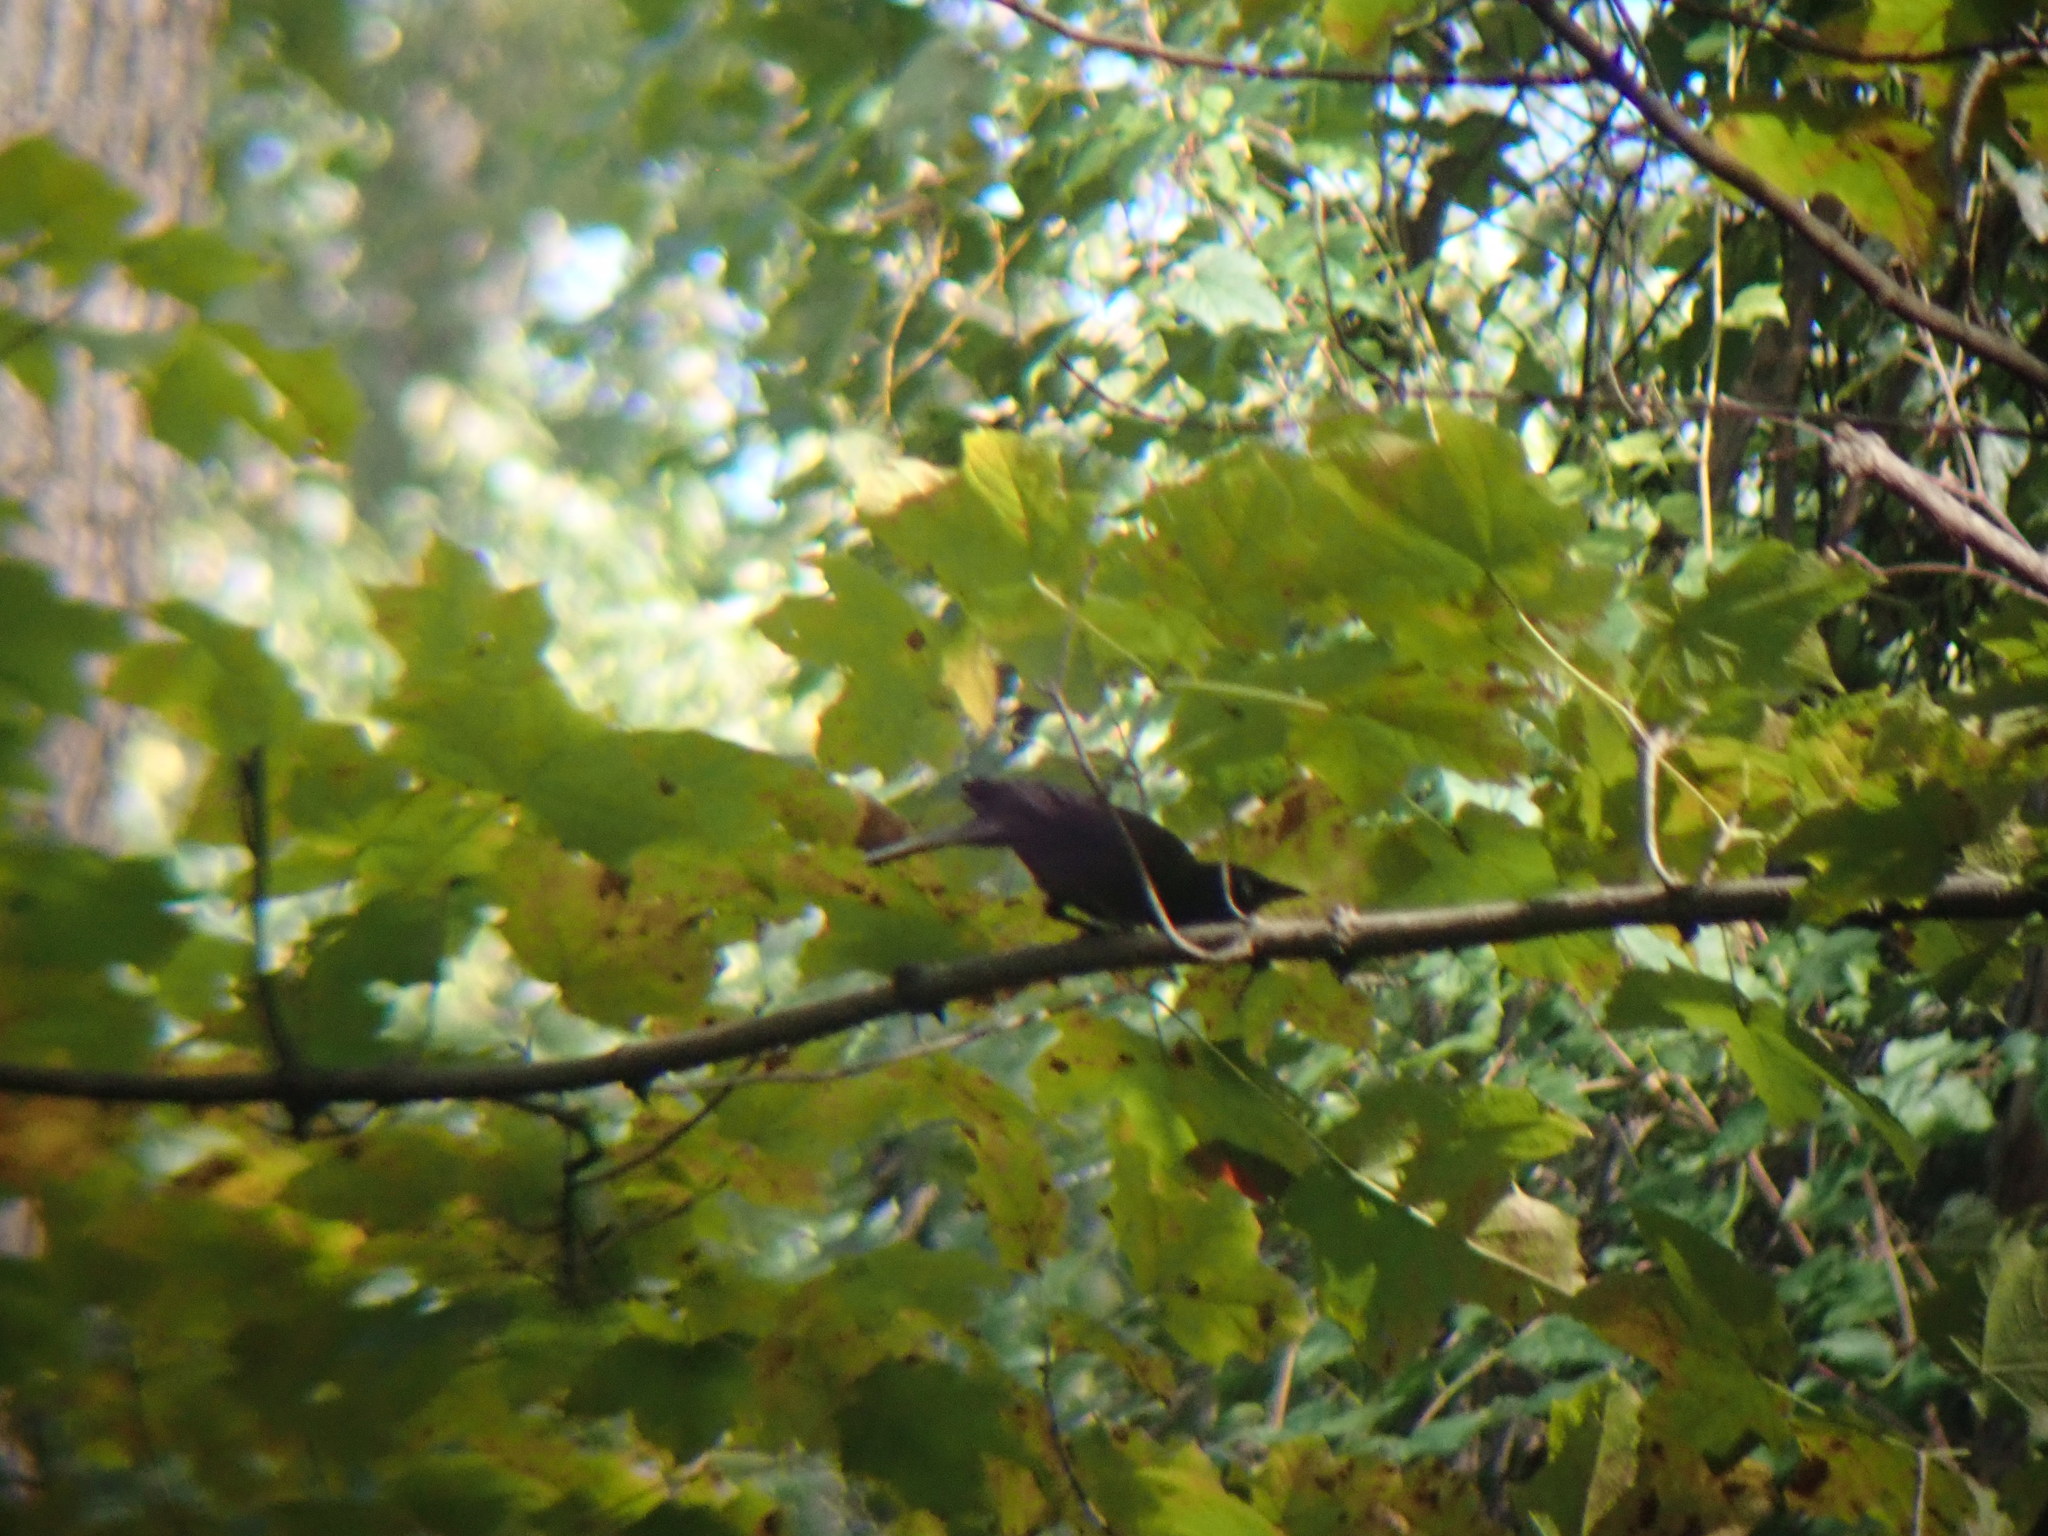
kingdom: Animalia
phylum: Chordata
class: Aves
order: Passeriformes
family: Icteridae
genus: Quiscalus
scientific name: Quiscalus quiscula
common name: Common grackle
